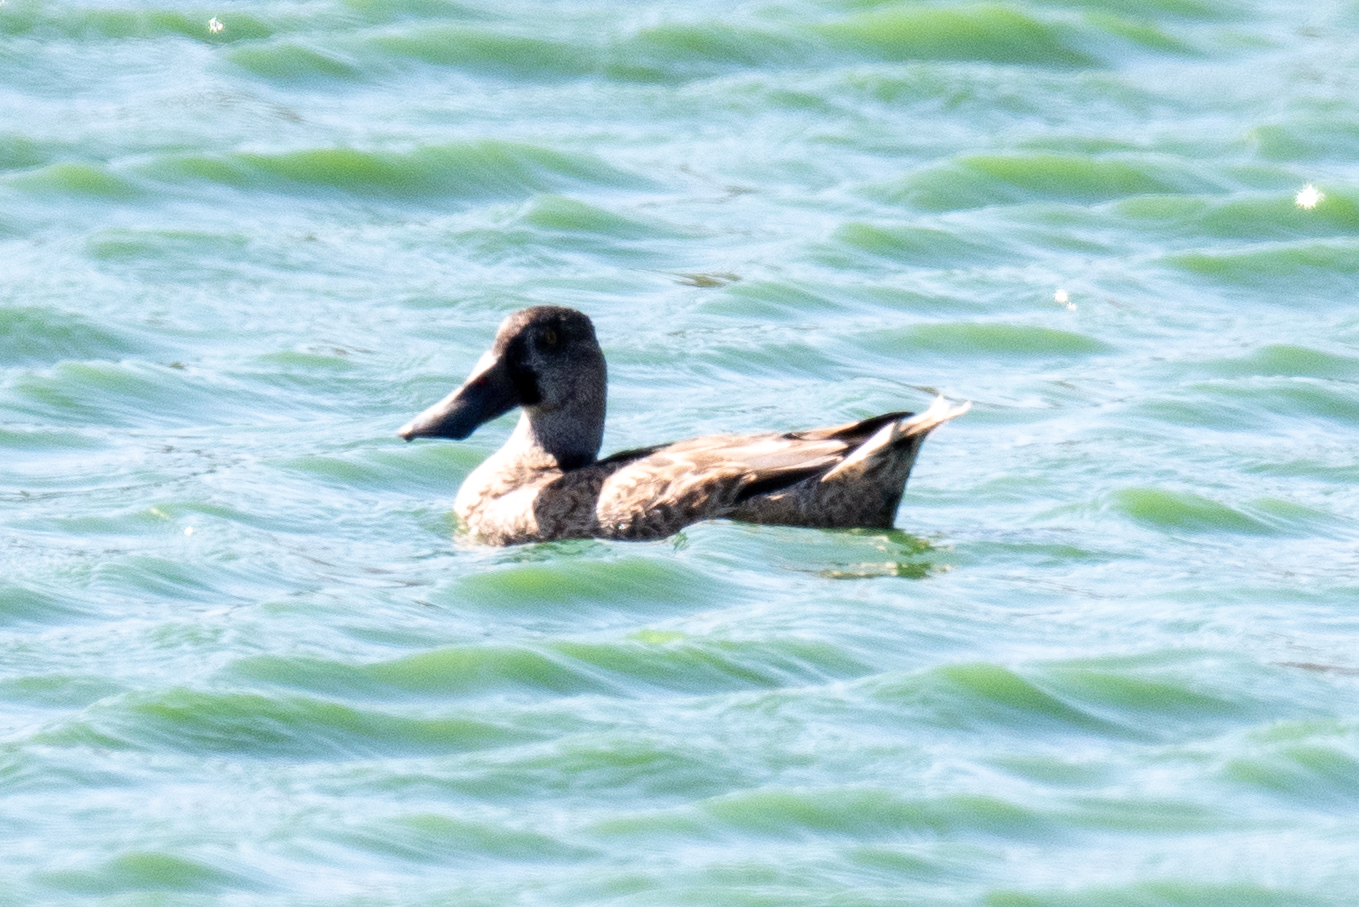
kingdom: Animalia
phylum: Chordata
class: Aves
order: Anseriformes
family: Anatidae
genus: Spatula
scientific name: Spatula clypeata
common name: Northern shoveler
